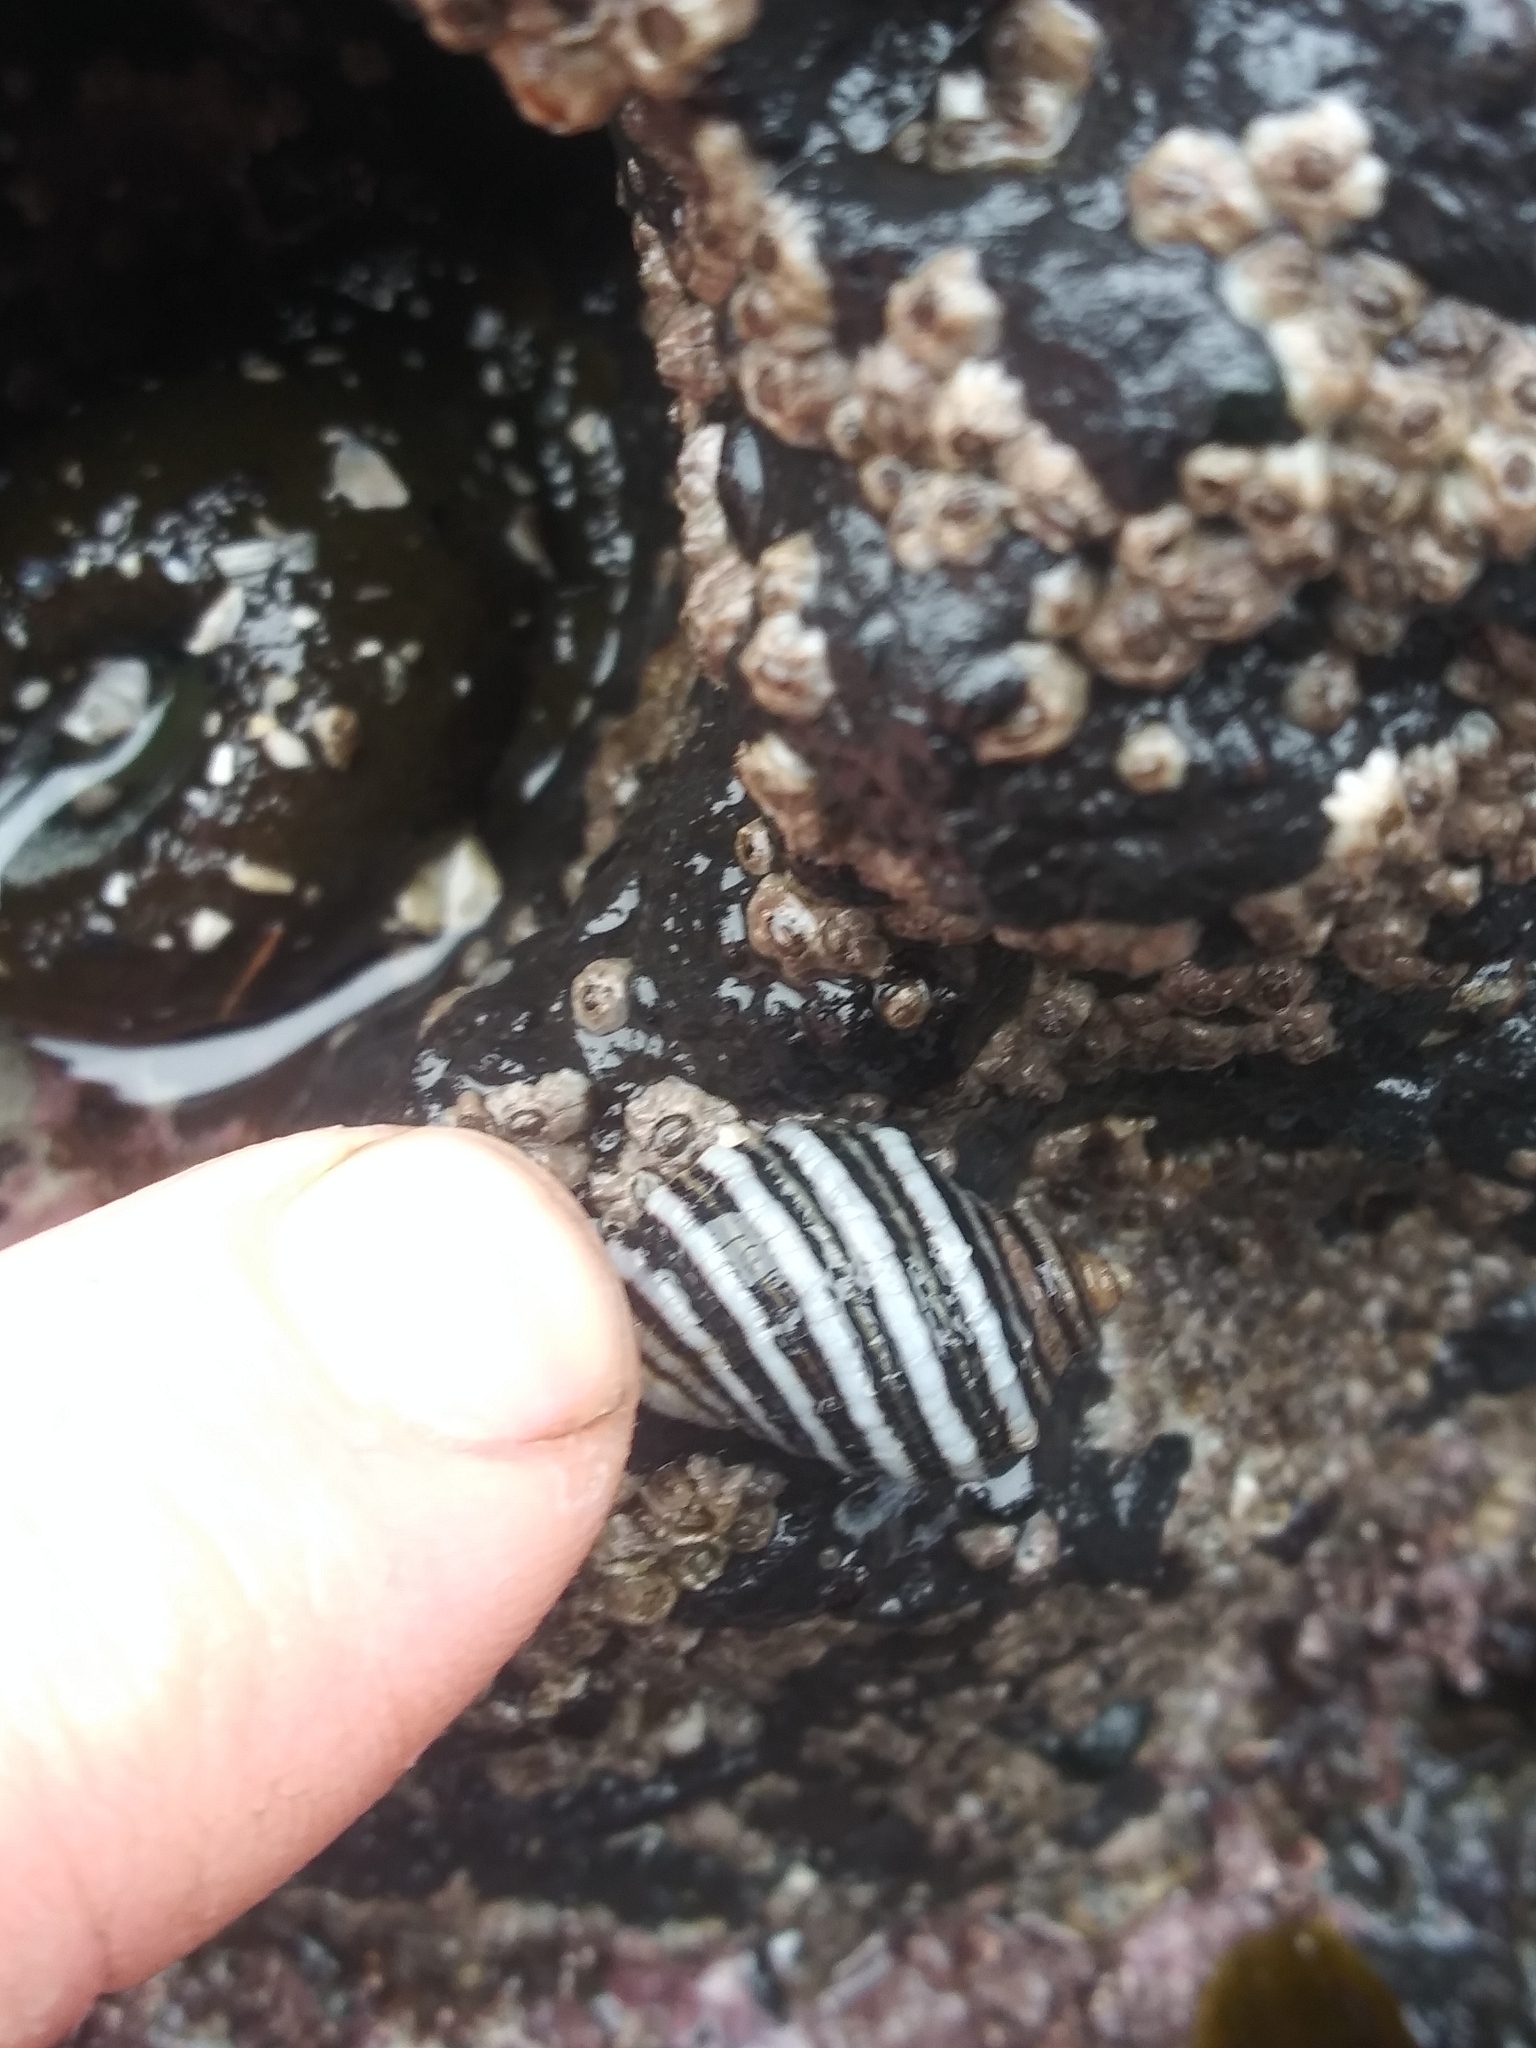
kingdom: Animalia
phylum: Mollusca
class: Gastropoda
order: Neogastropoda
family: Muricidae
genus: Nucella
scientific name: Nucella ostrina
